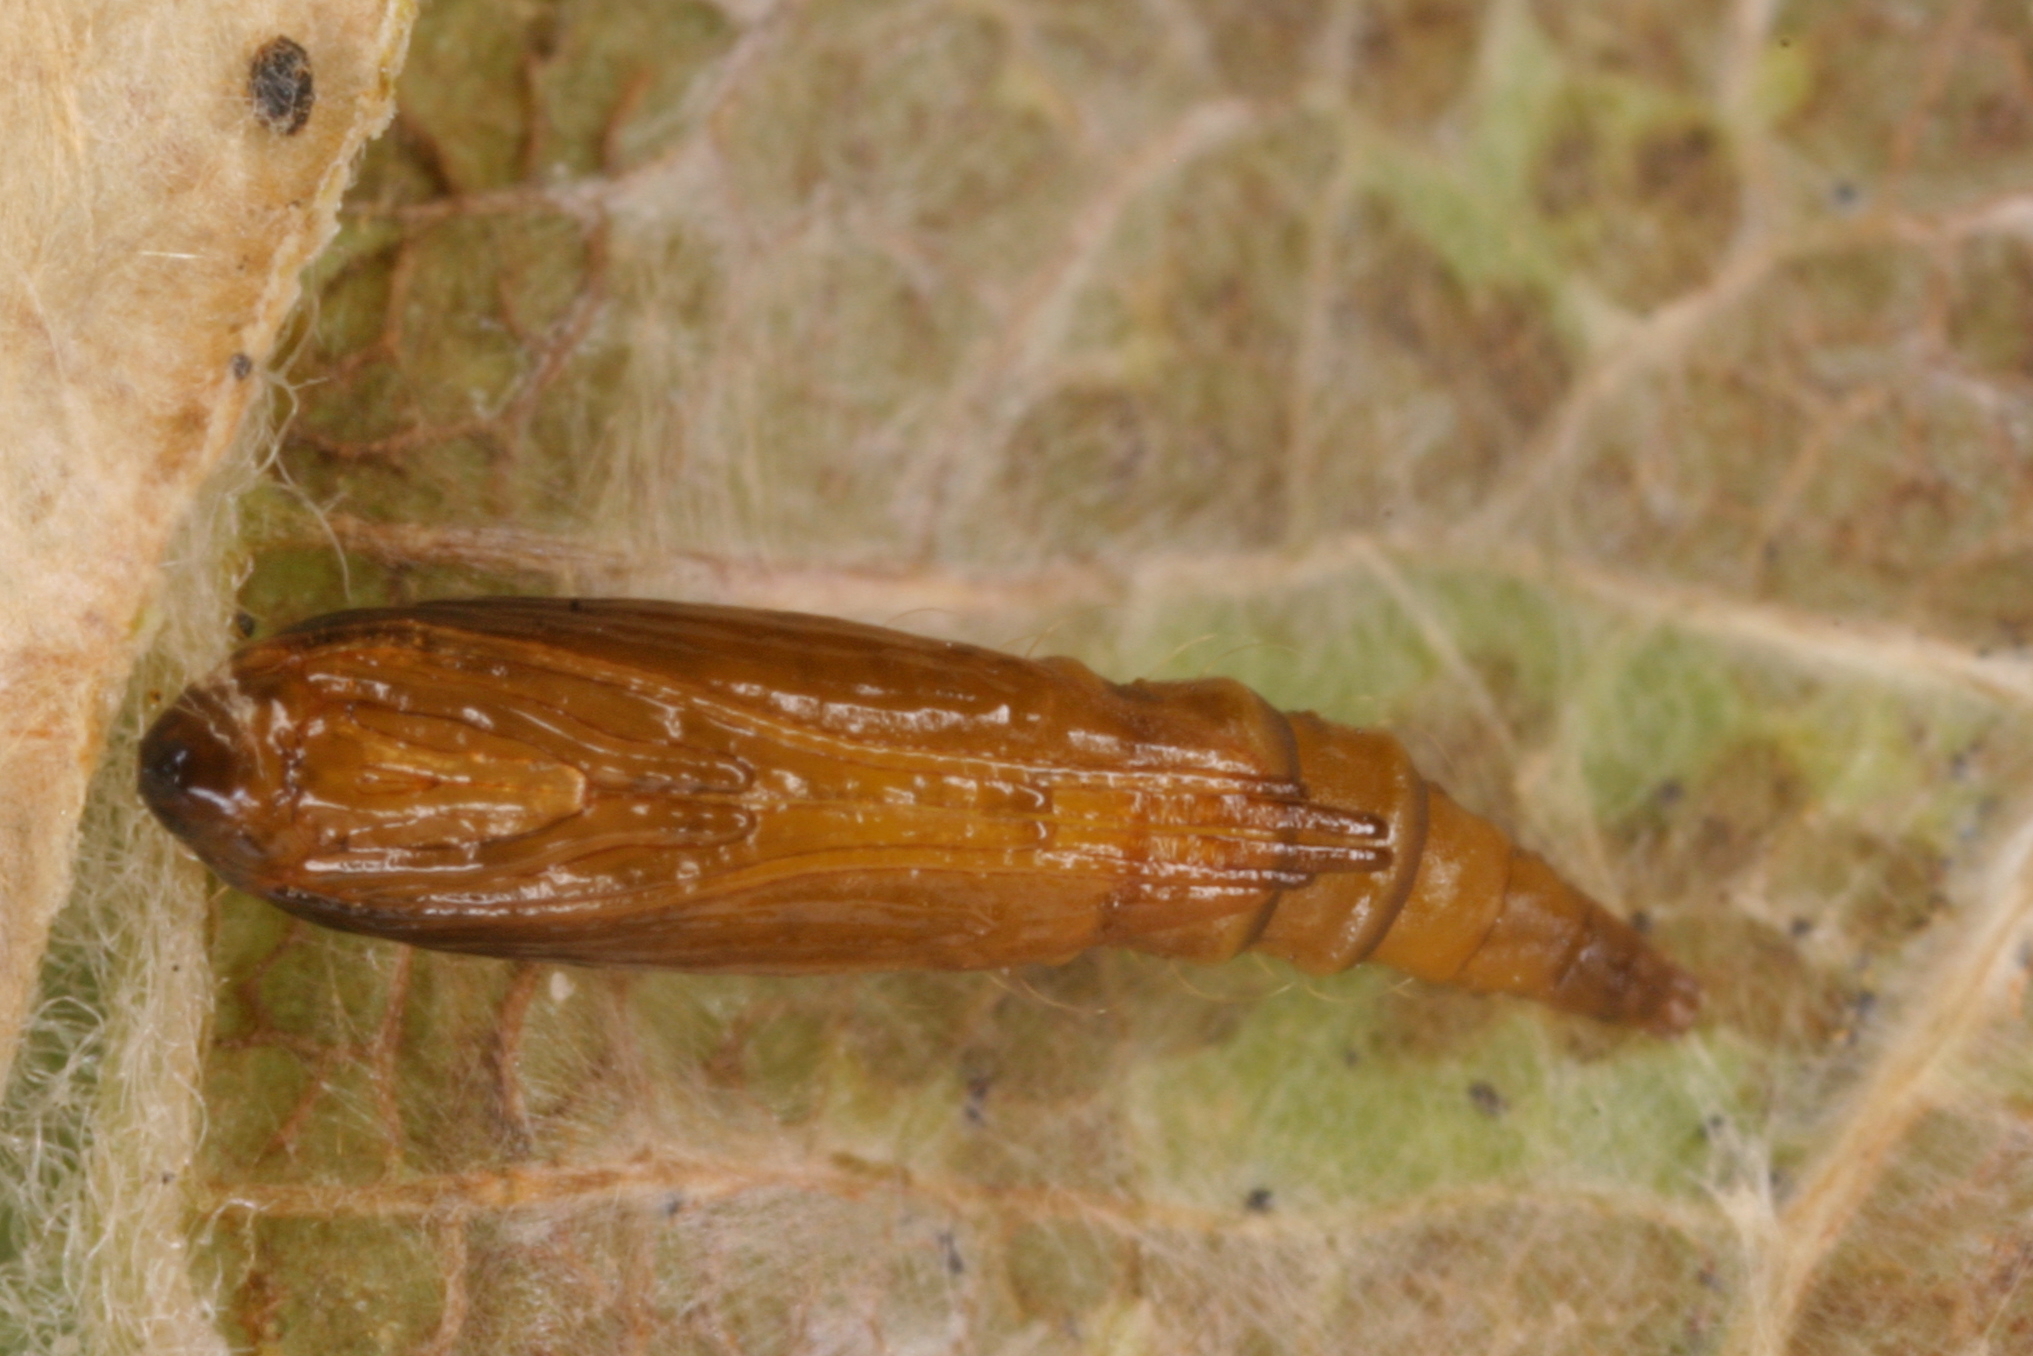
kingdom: Animalia
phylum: Arthropoda
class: Insecta
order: Lepidoptera
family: Gracillariidae
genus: Phyllonorycter
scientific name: Phyllonorycter dubitella
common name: Southern midget
